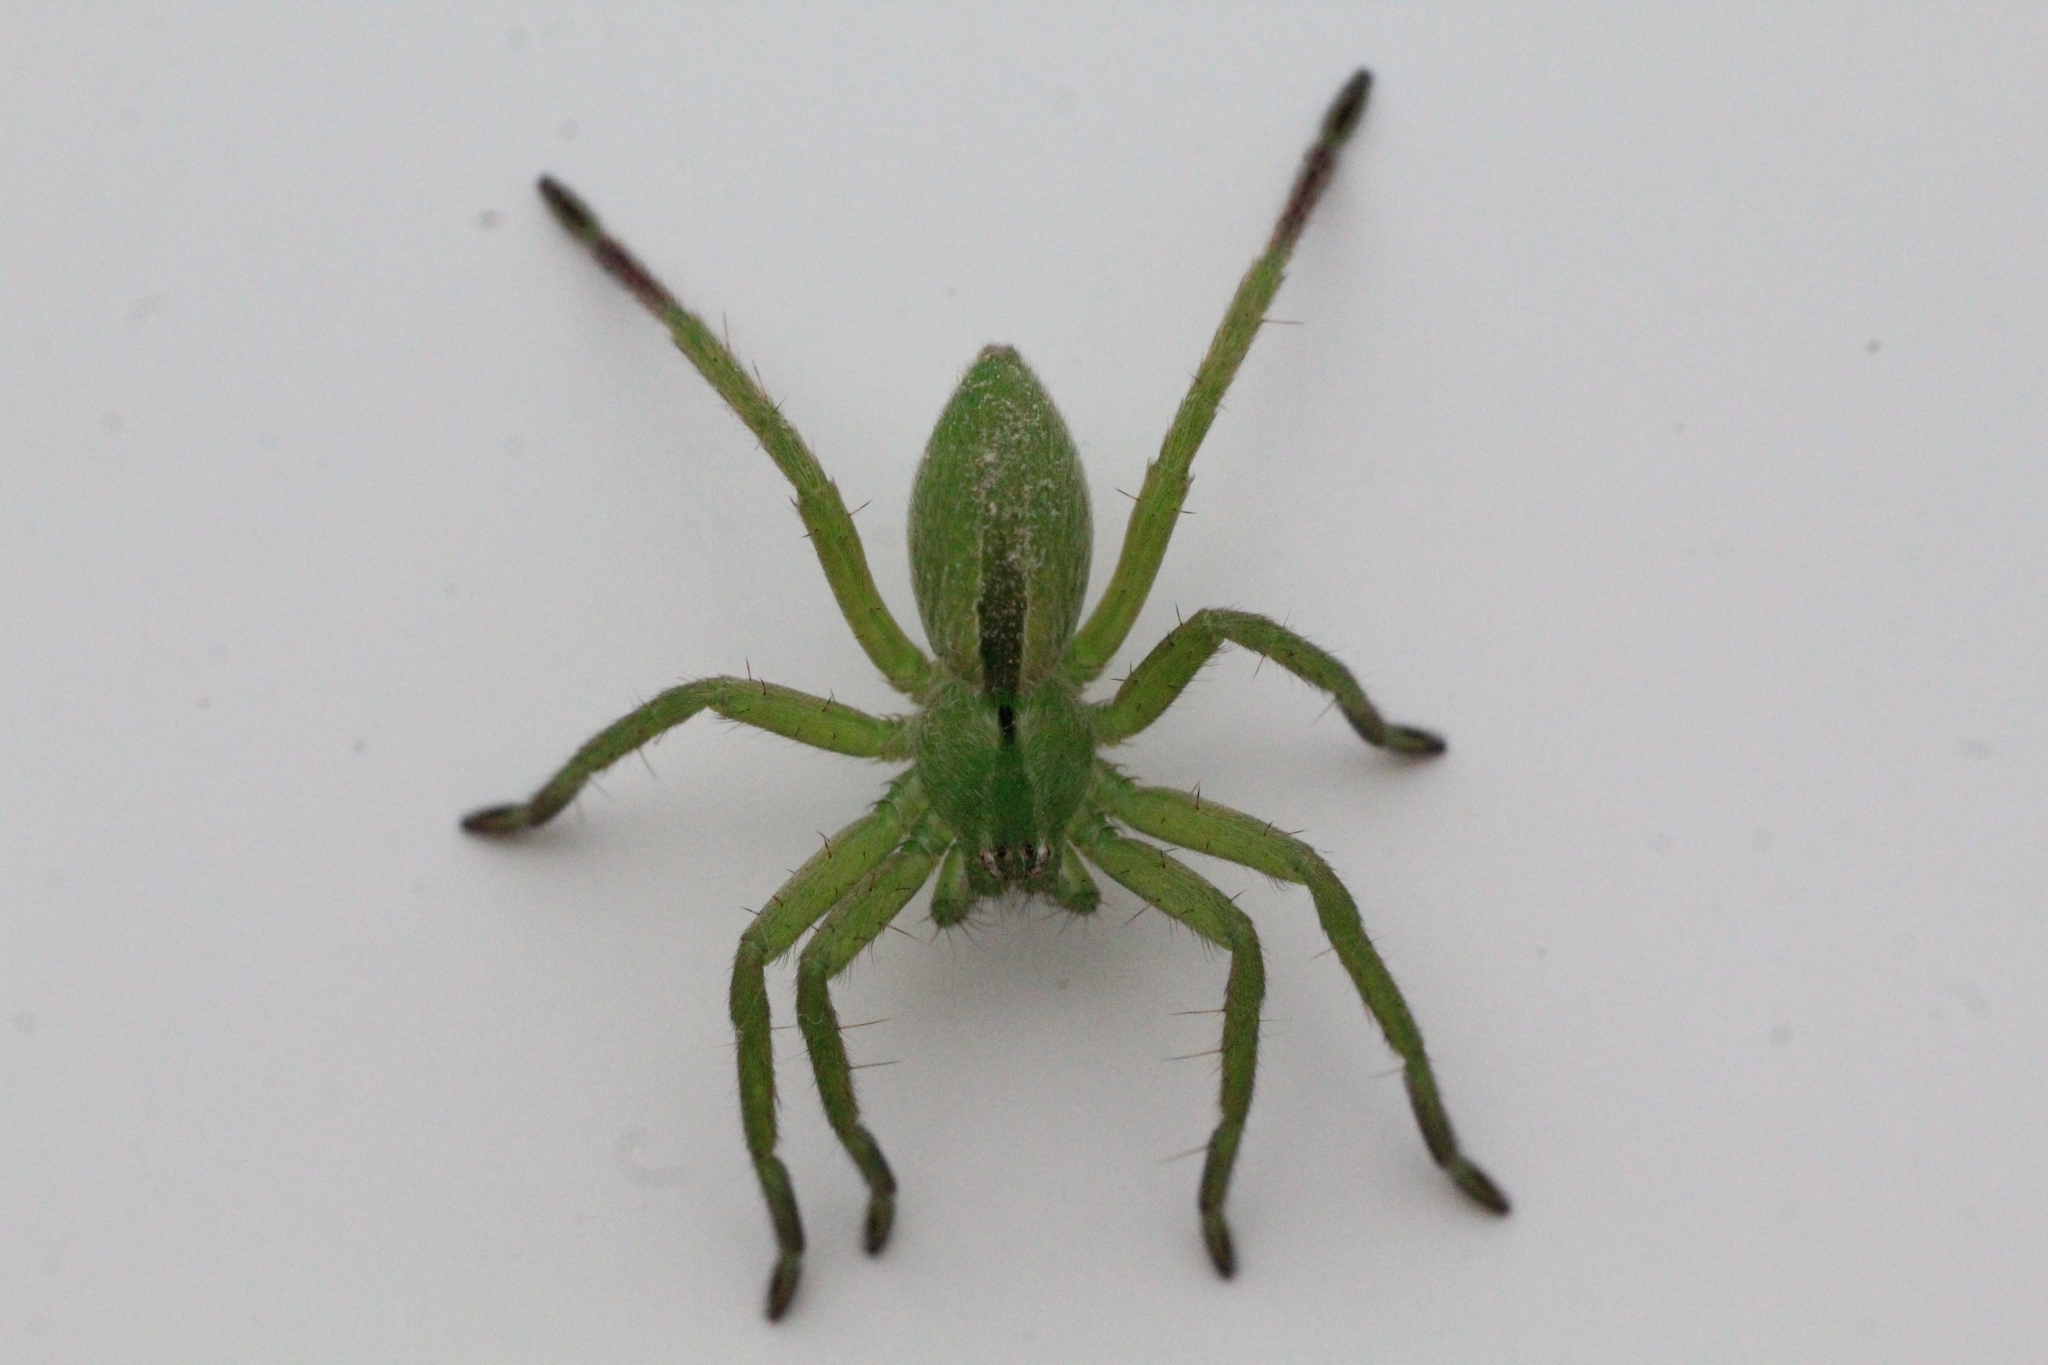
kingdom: Animalia
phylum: Arthropoda
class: Arachnida
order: Araneae
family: Sparassidae
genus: Micrommata
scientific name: Micrommata ligurina
